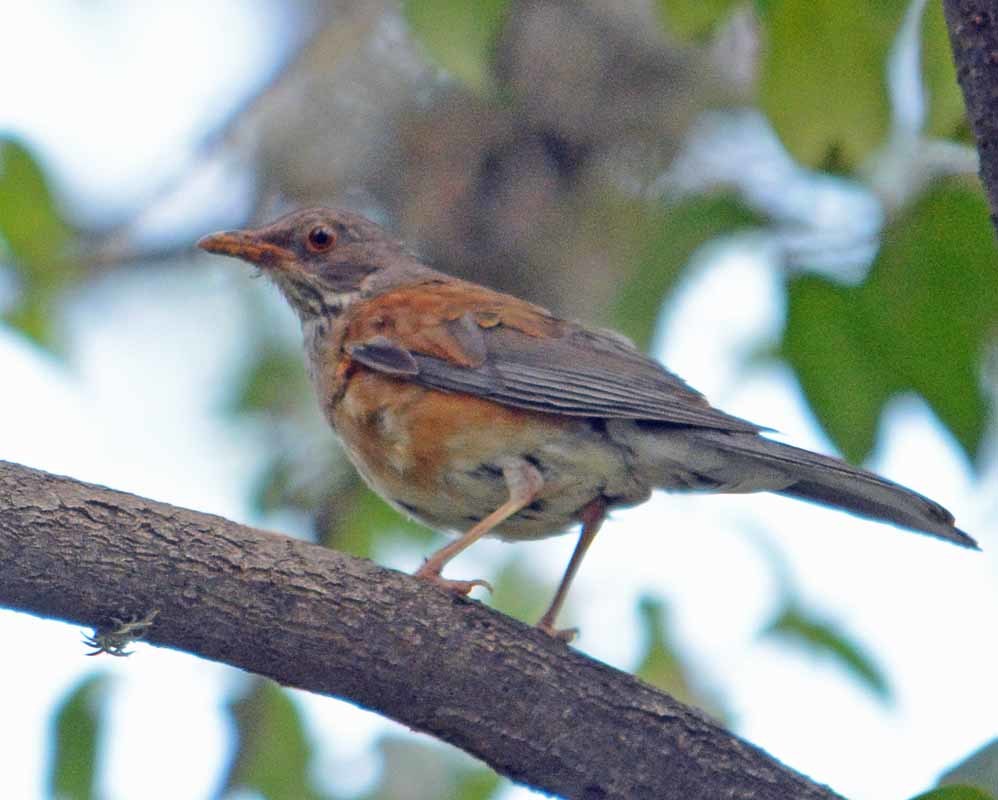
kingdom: Animalia
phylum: Chordata
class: Aves
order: Passeriformes
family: Turdidae
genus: Turdus
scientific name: Turdus rufopalliatus
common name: Rufous-backed robin
